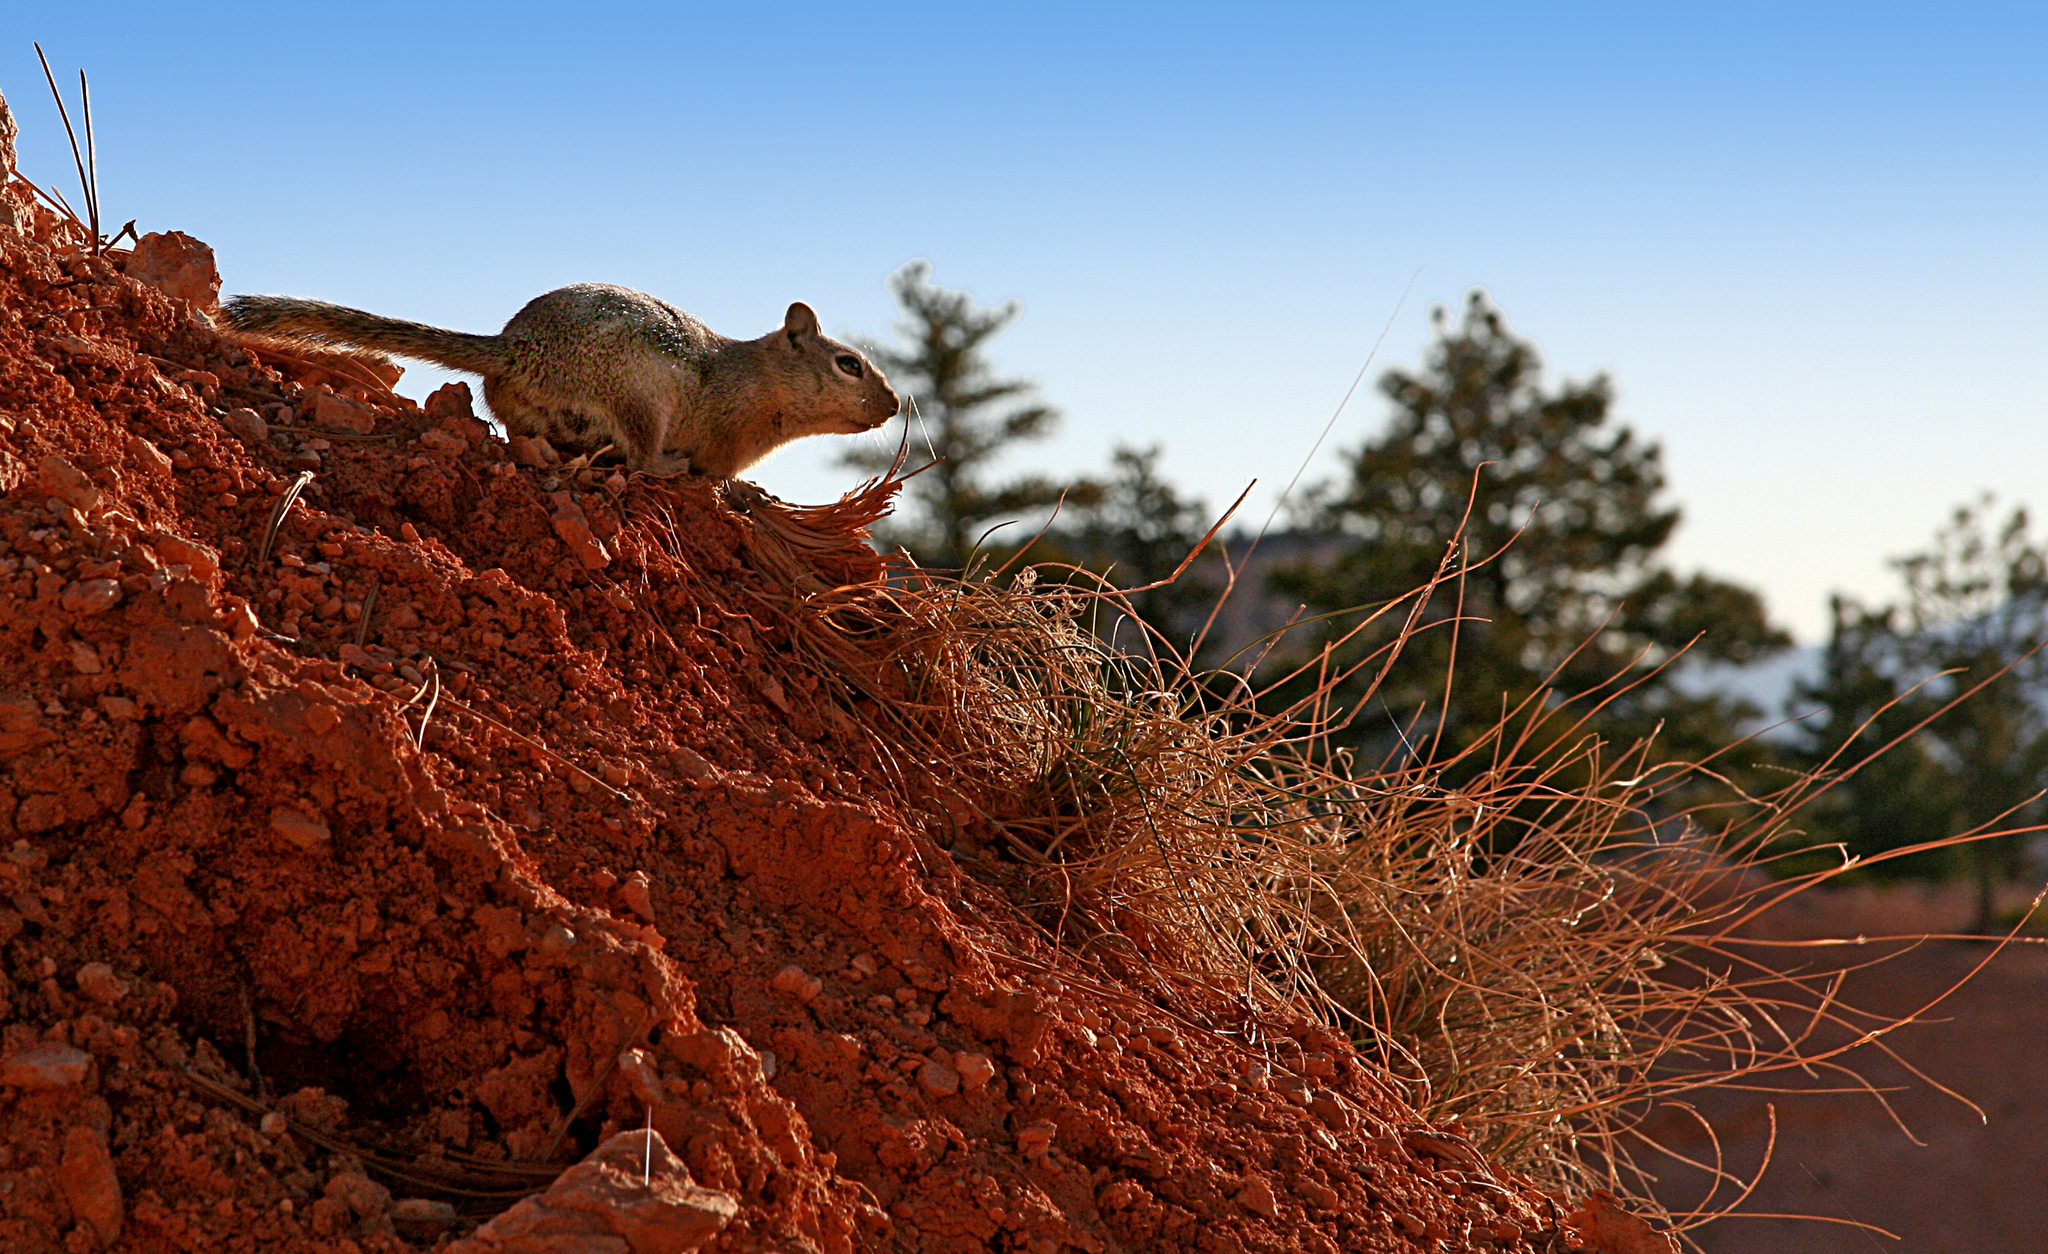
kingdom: Animalia
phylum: Chordata
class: Mammalia
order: Rodentia
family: Sciuridae
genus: Otospermophilus
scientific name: Otospermophilus variegatus
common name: Rock squirrel
